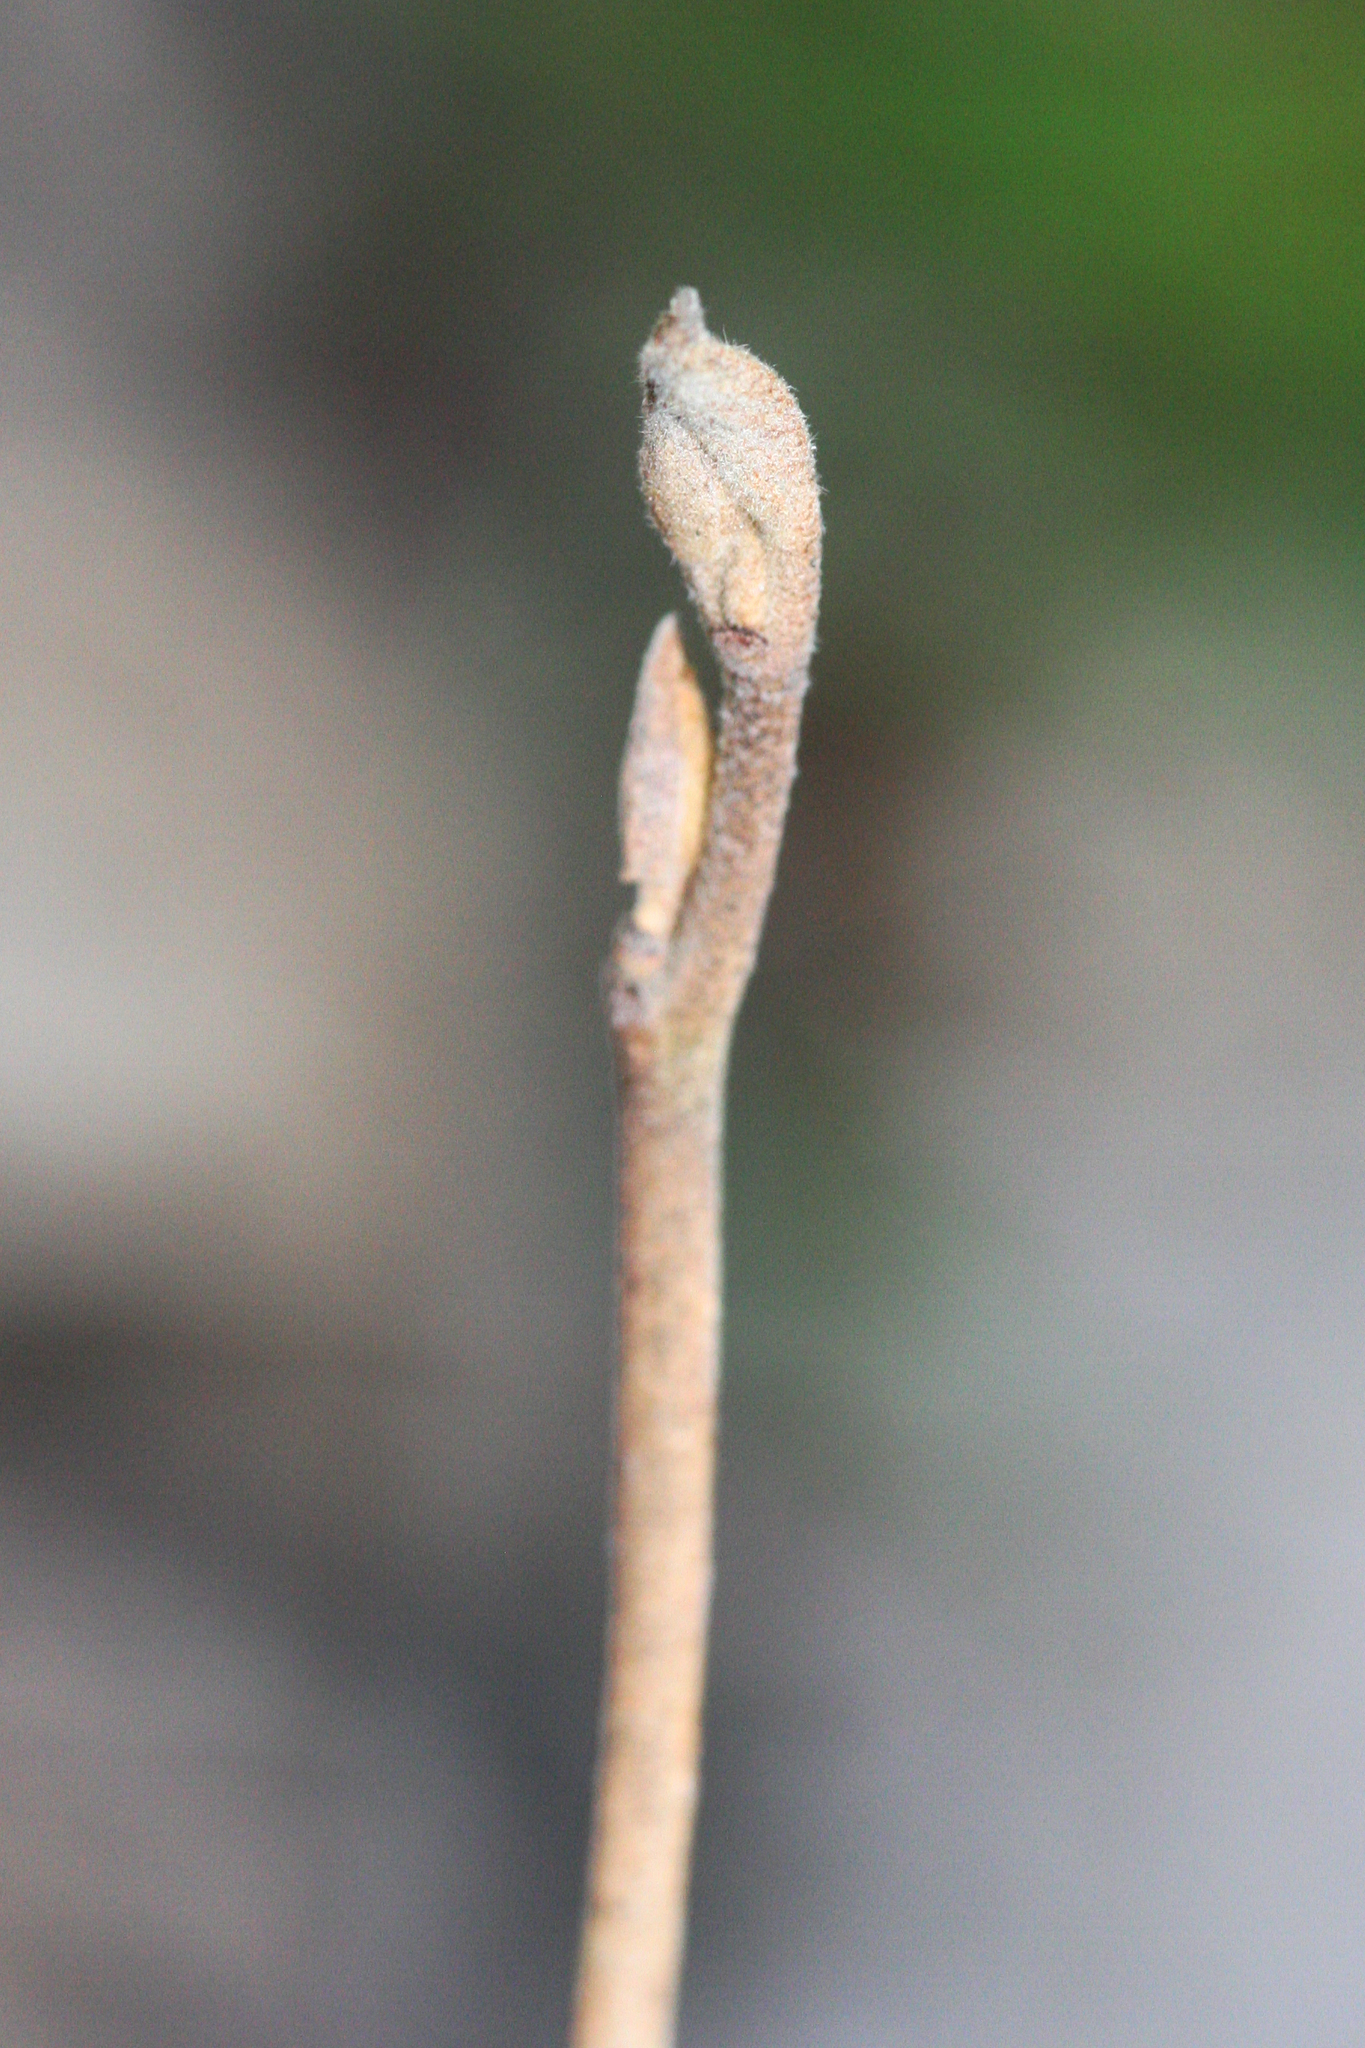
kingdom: Plantae
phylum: Tracheophyta
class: Magnoliopsida
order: Saxifragales
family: Hamamelidaceae
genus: Hamamelis
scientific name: Hamamelis virginiana
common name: Witch-hazel
